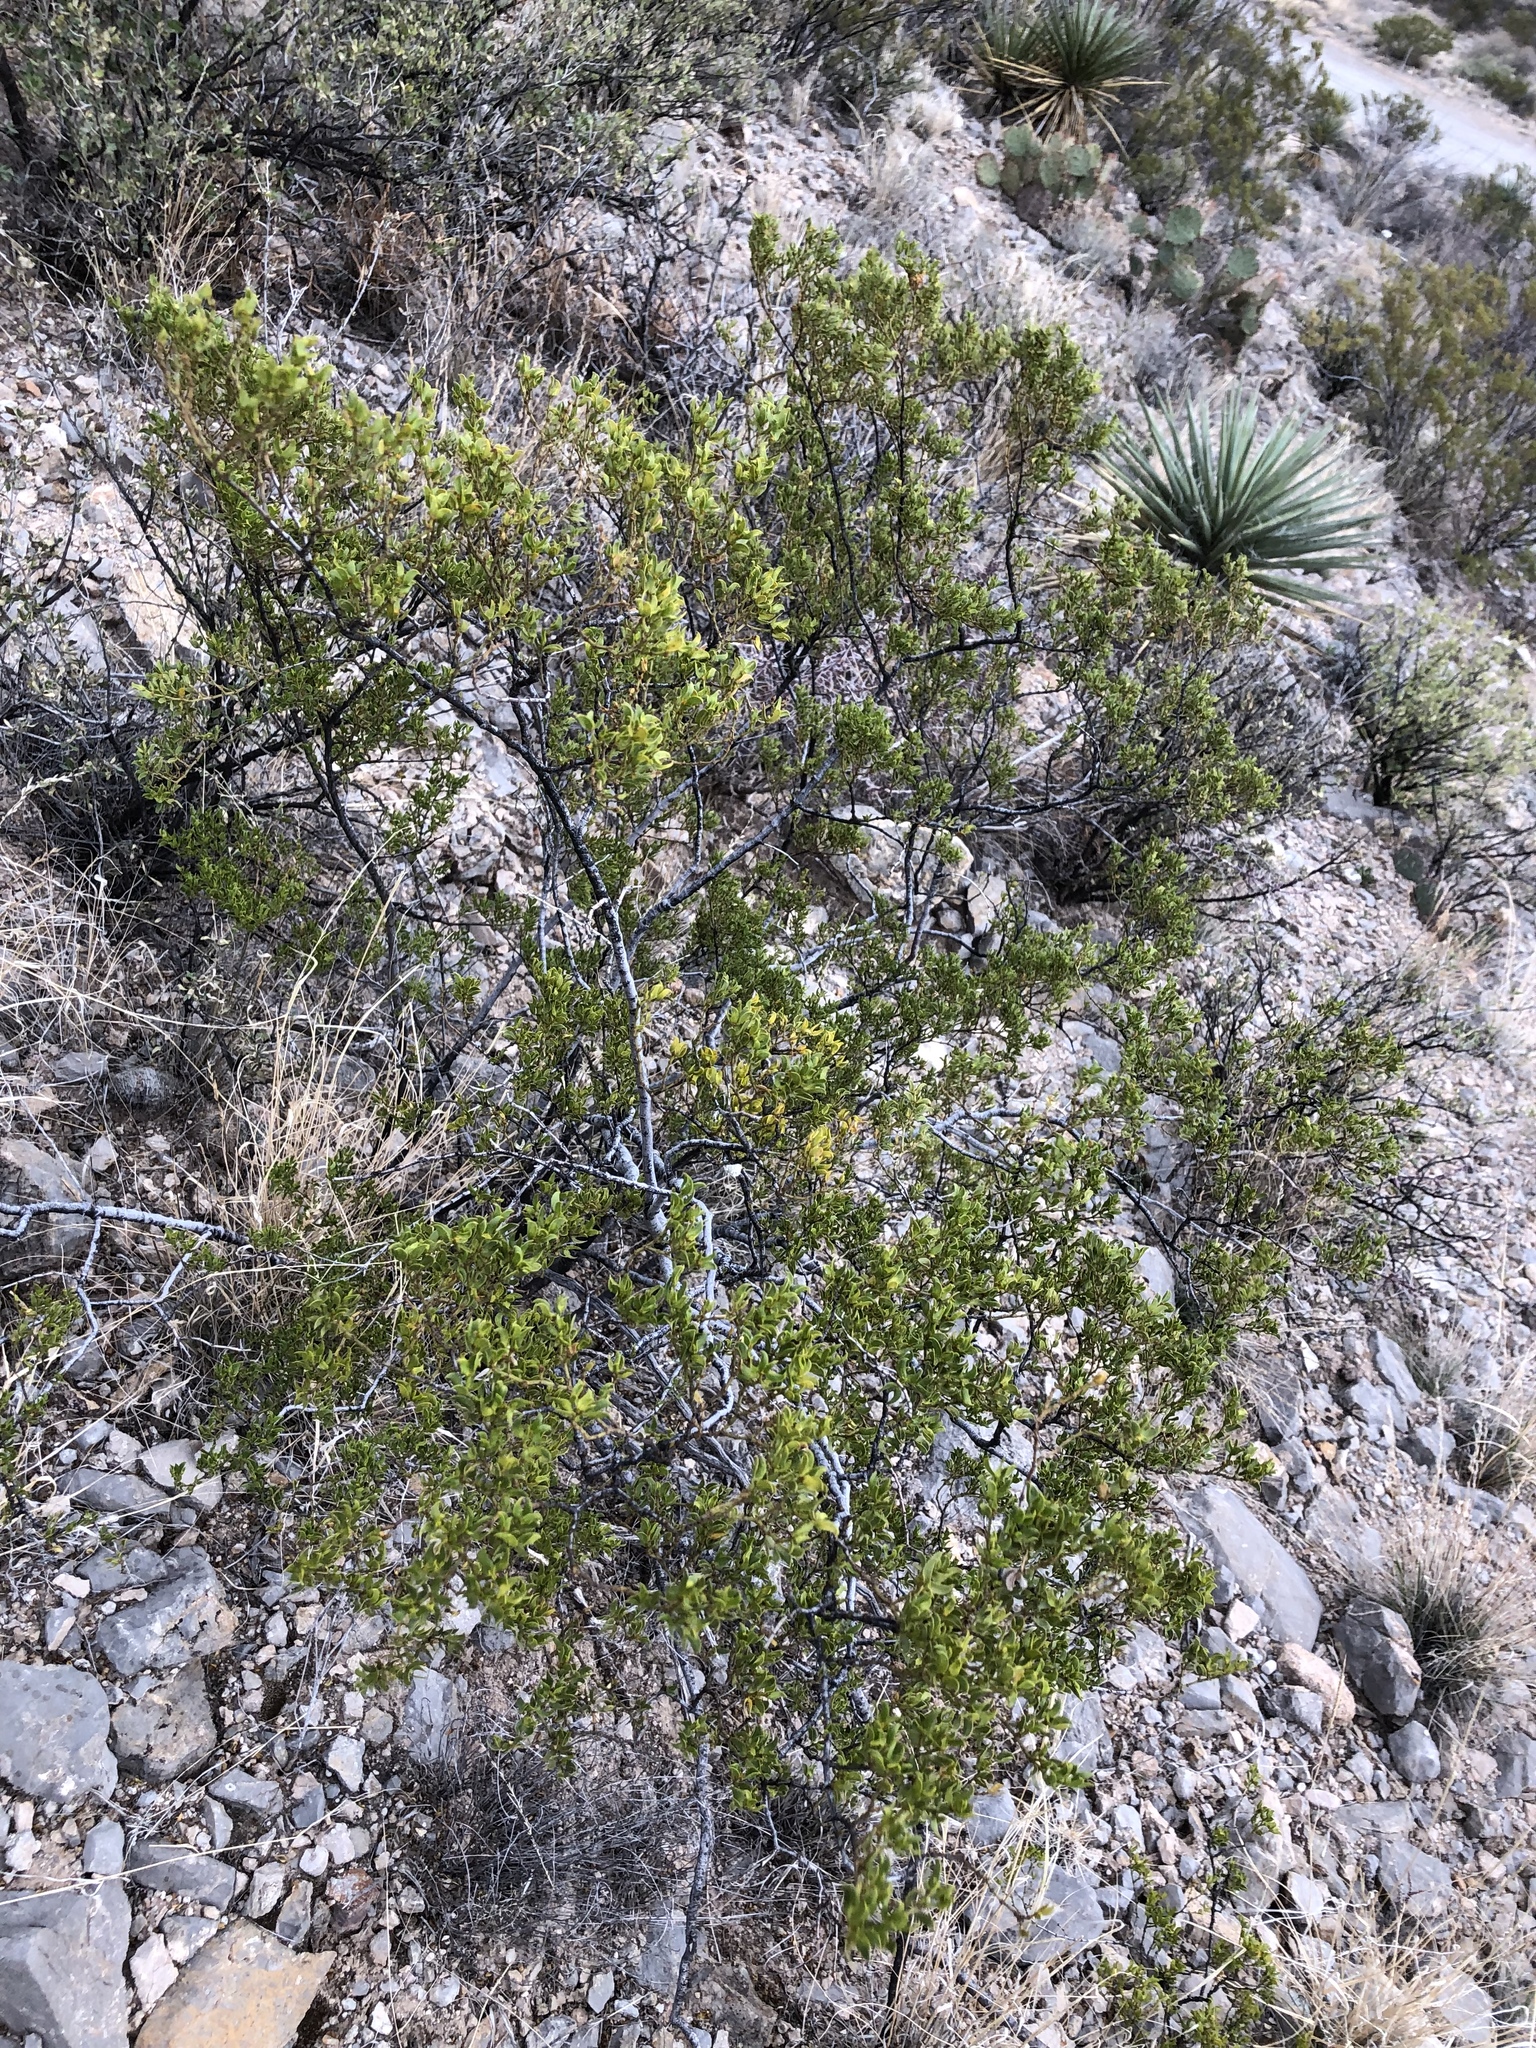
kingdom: Plantae
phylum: Tracheophyta
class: Magnoliopsida
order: Zygophyllales
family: Zygophyllaceae
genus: Larrea
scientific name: Larrea tridentata
